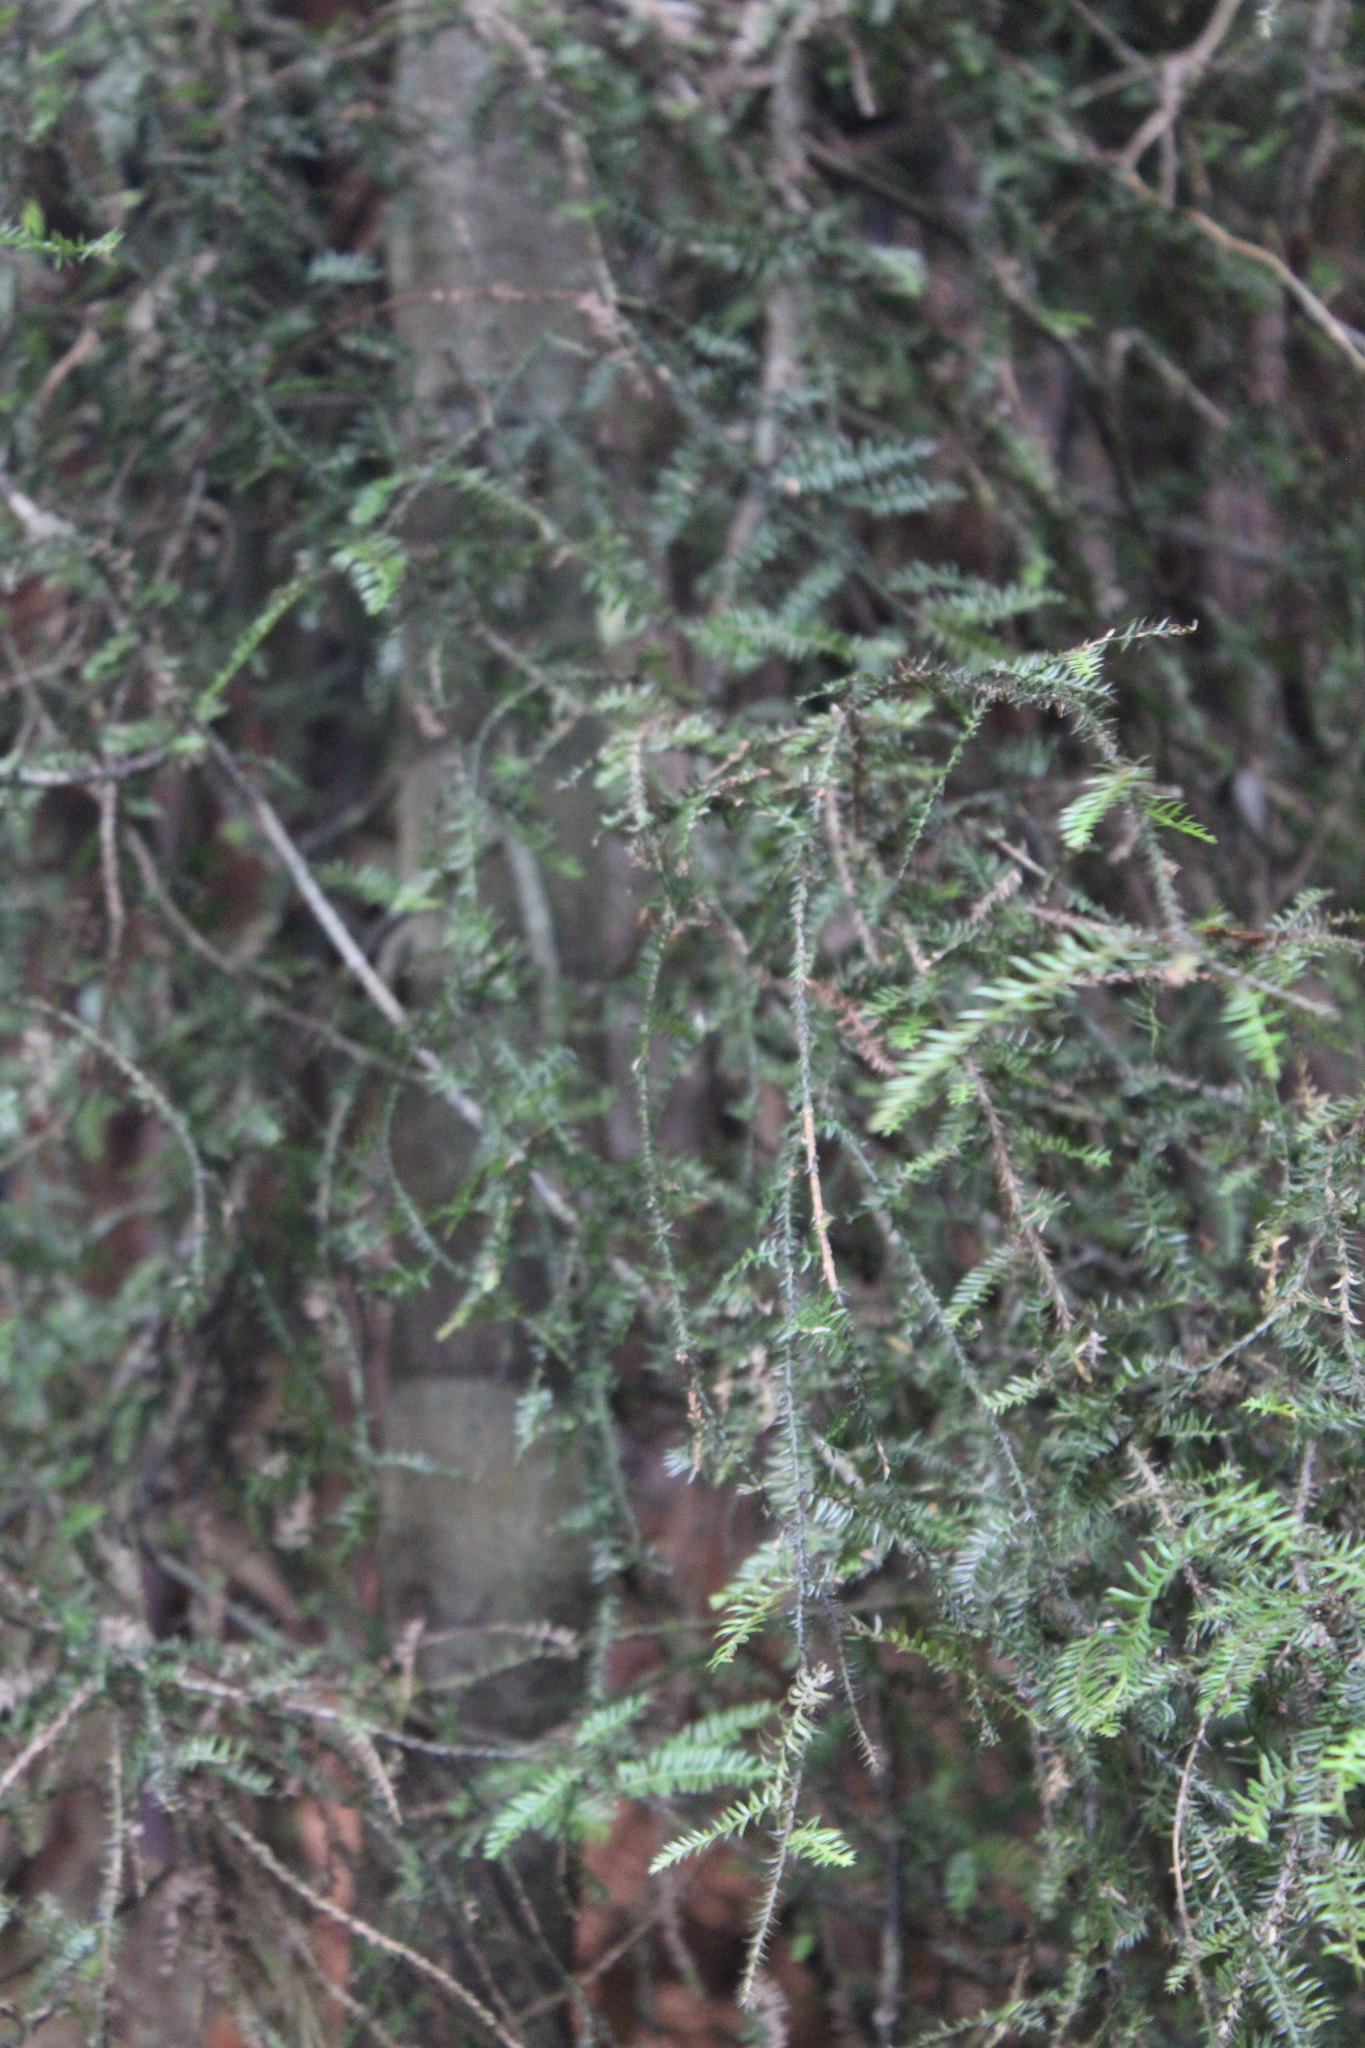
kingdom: Plantae
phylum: Tracheophyta
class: Pinopsida
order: Pinales
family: Podocarpaceae
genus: Dacrycarpus
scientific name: Dacrycarpus dacrydioides
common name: White pine
